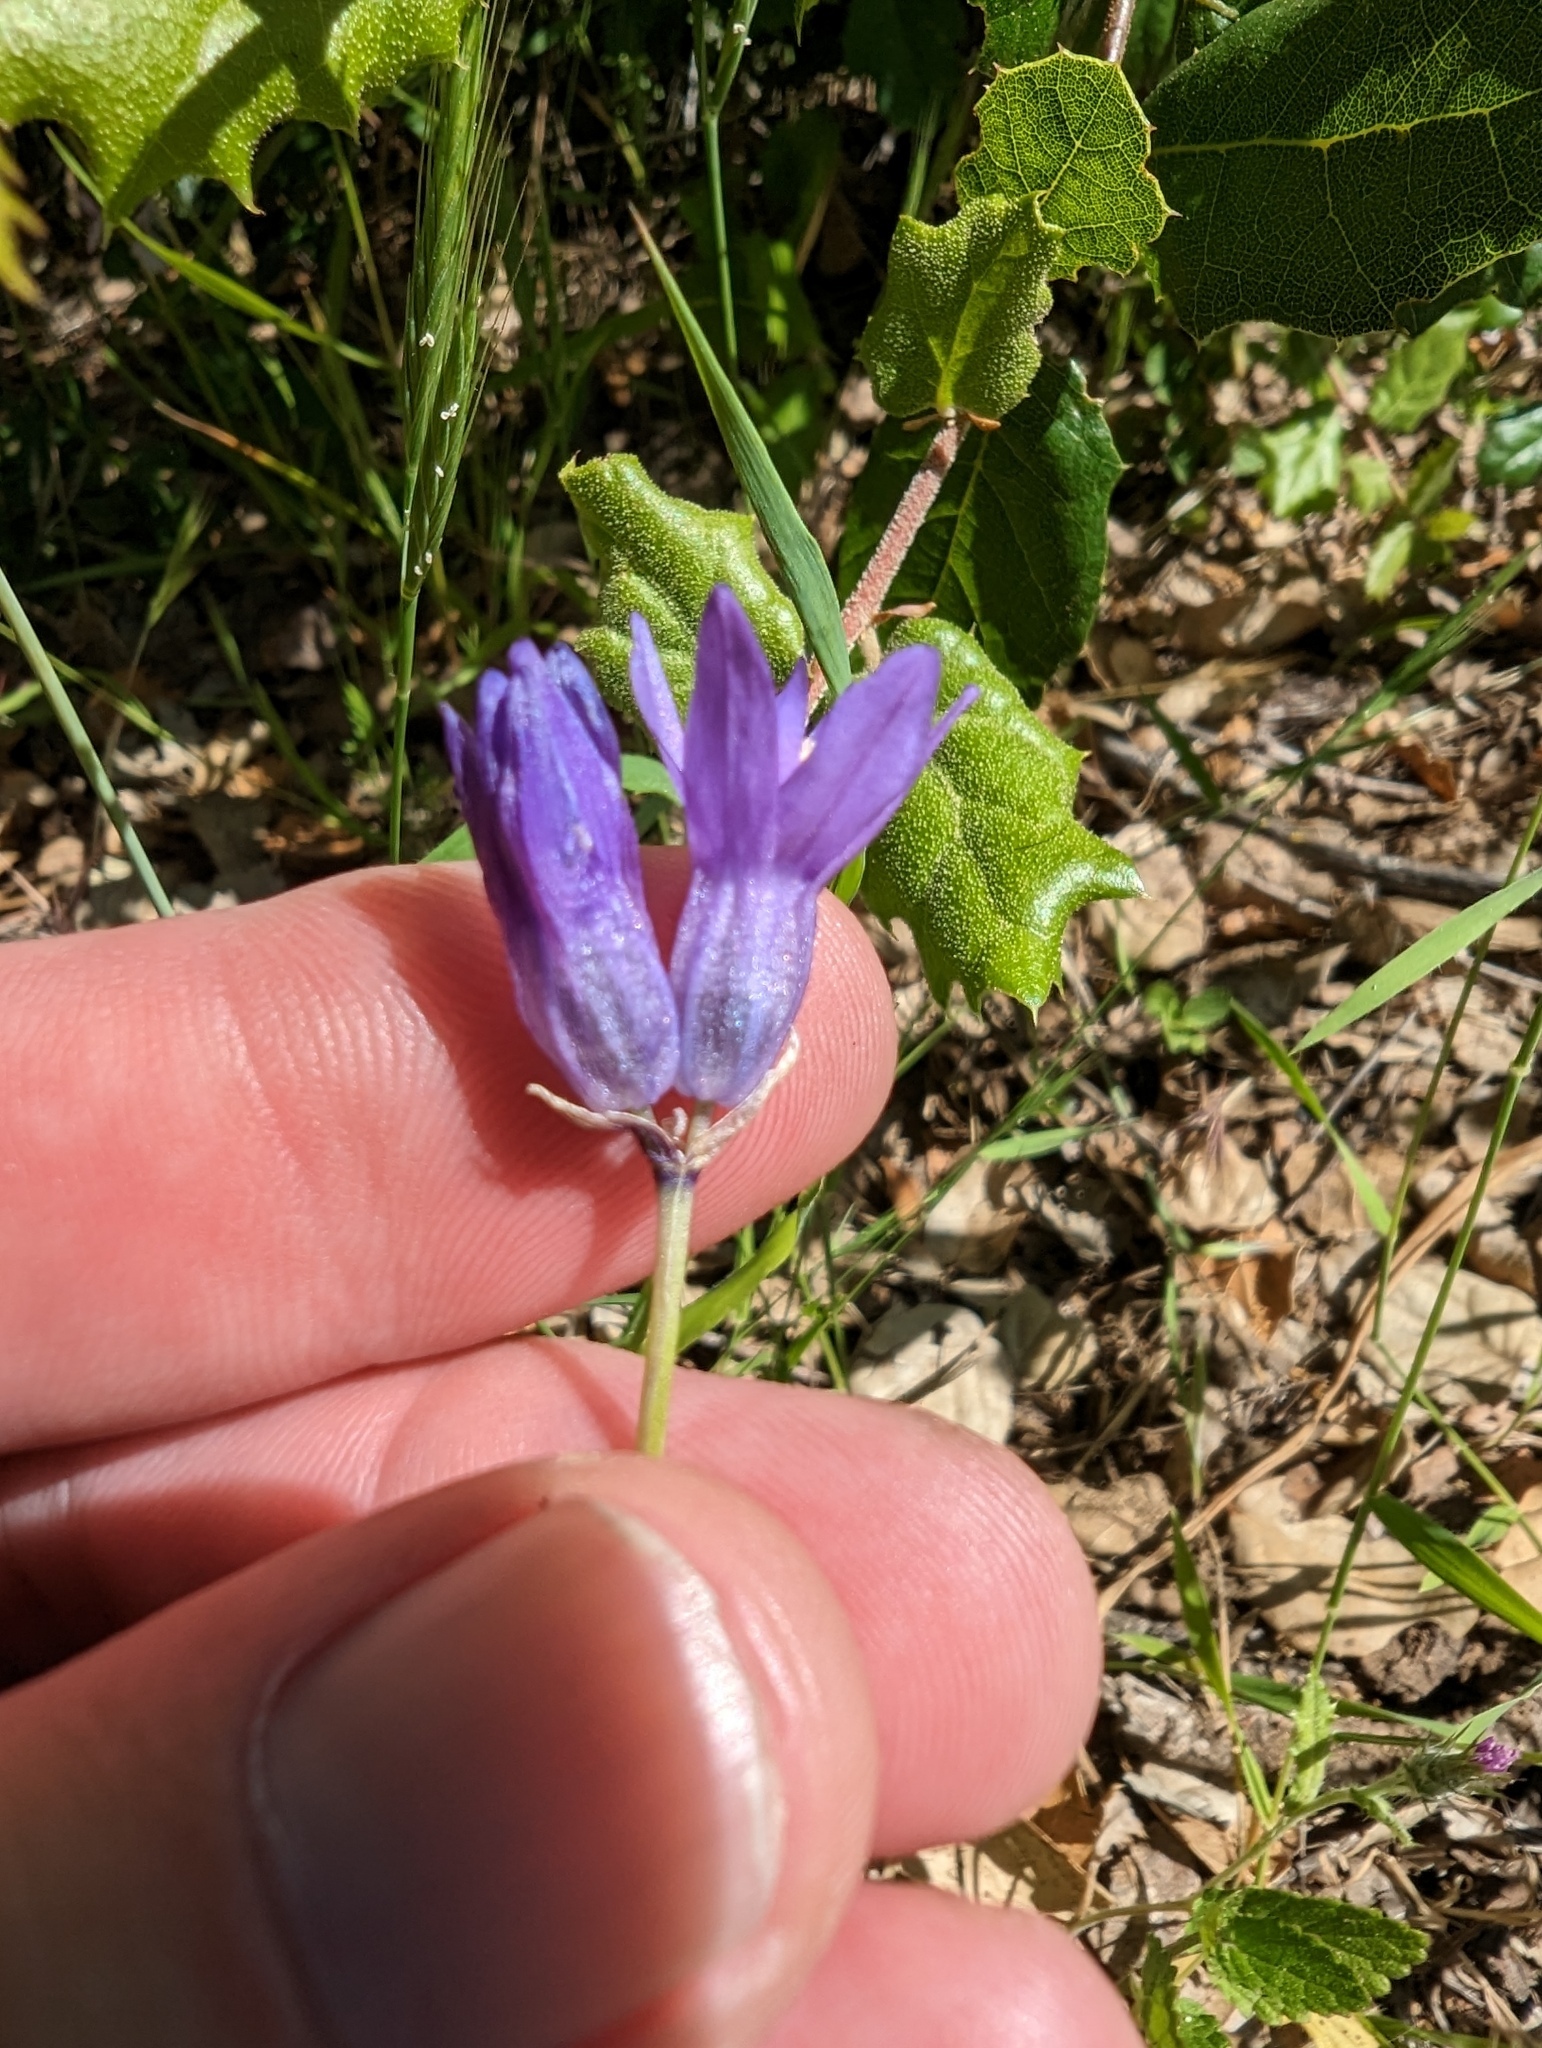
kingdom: Plantae
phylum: Tracheophyta
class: Liliopsida
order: Asparagales
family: Asparagaceae
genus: Dipterostemon
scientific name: Dipterostemon capitatus
